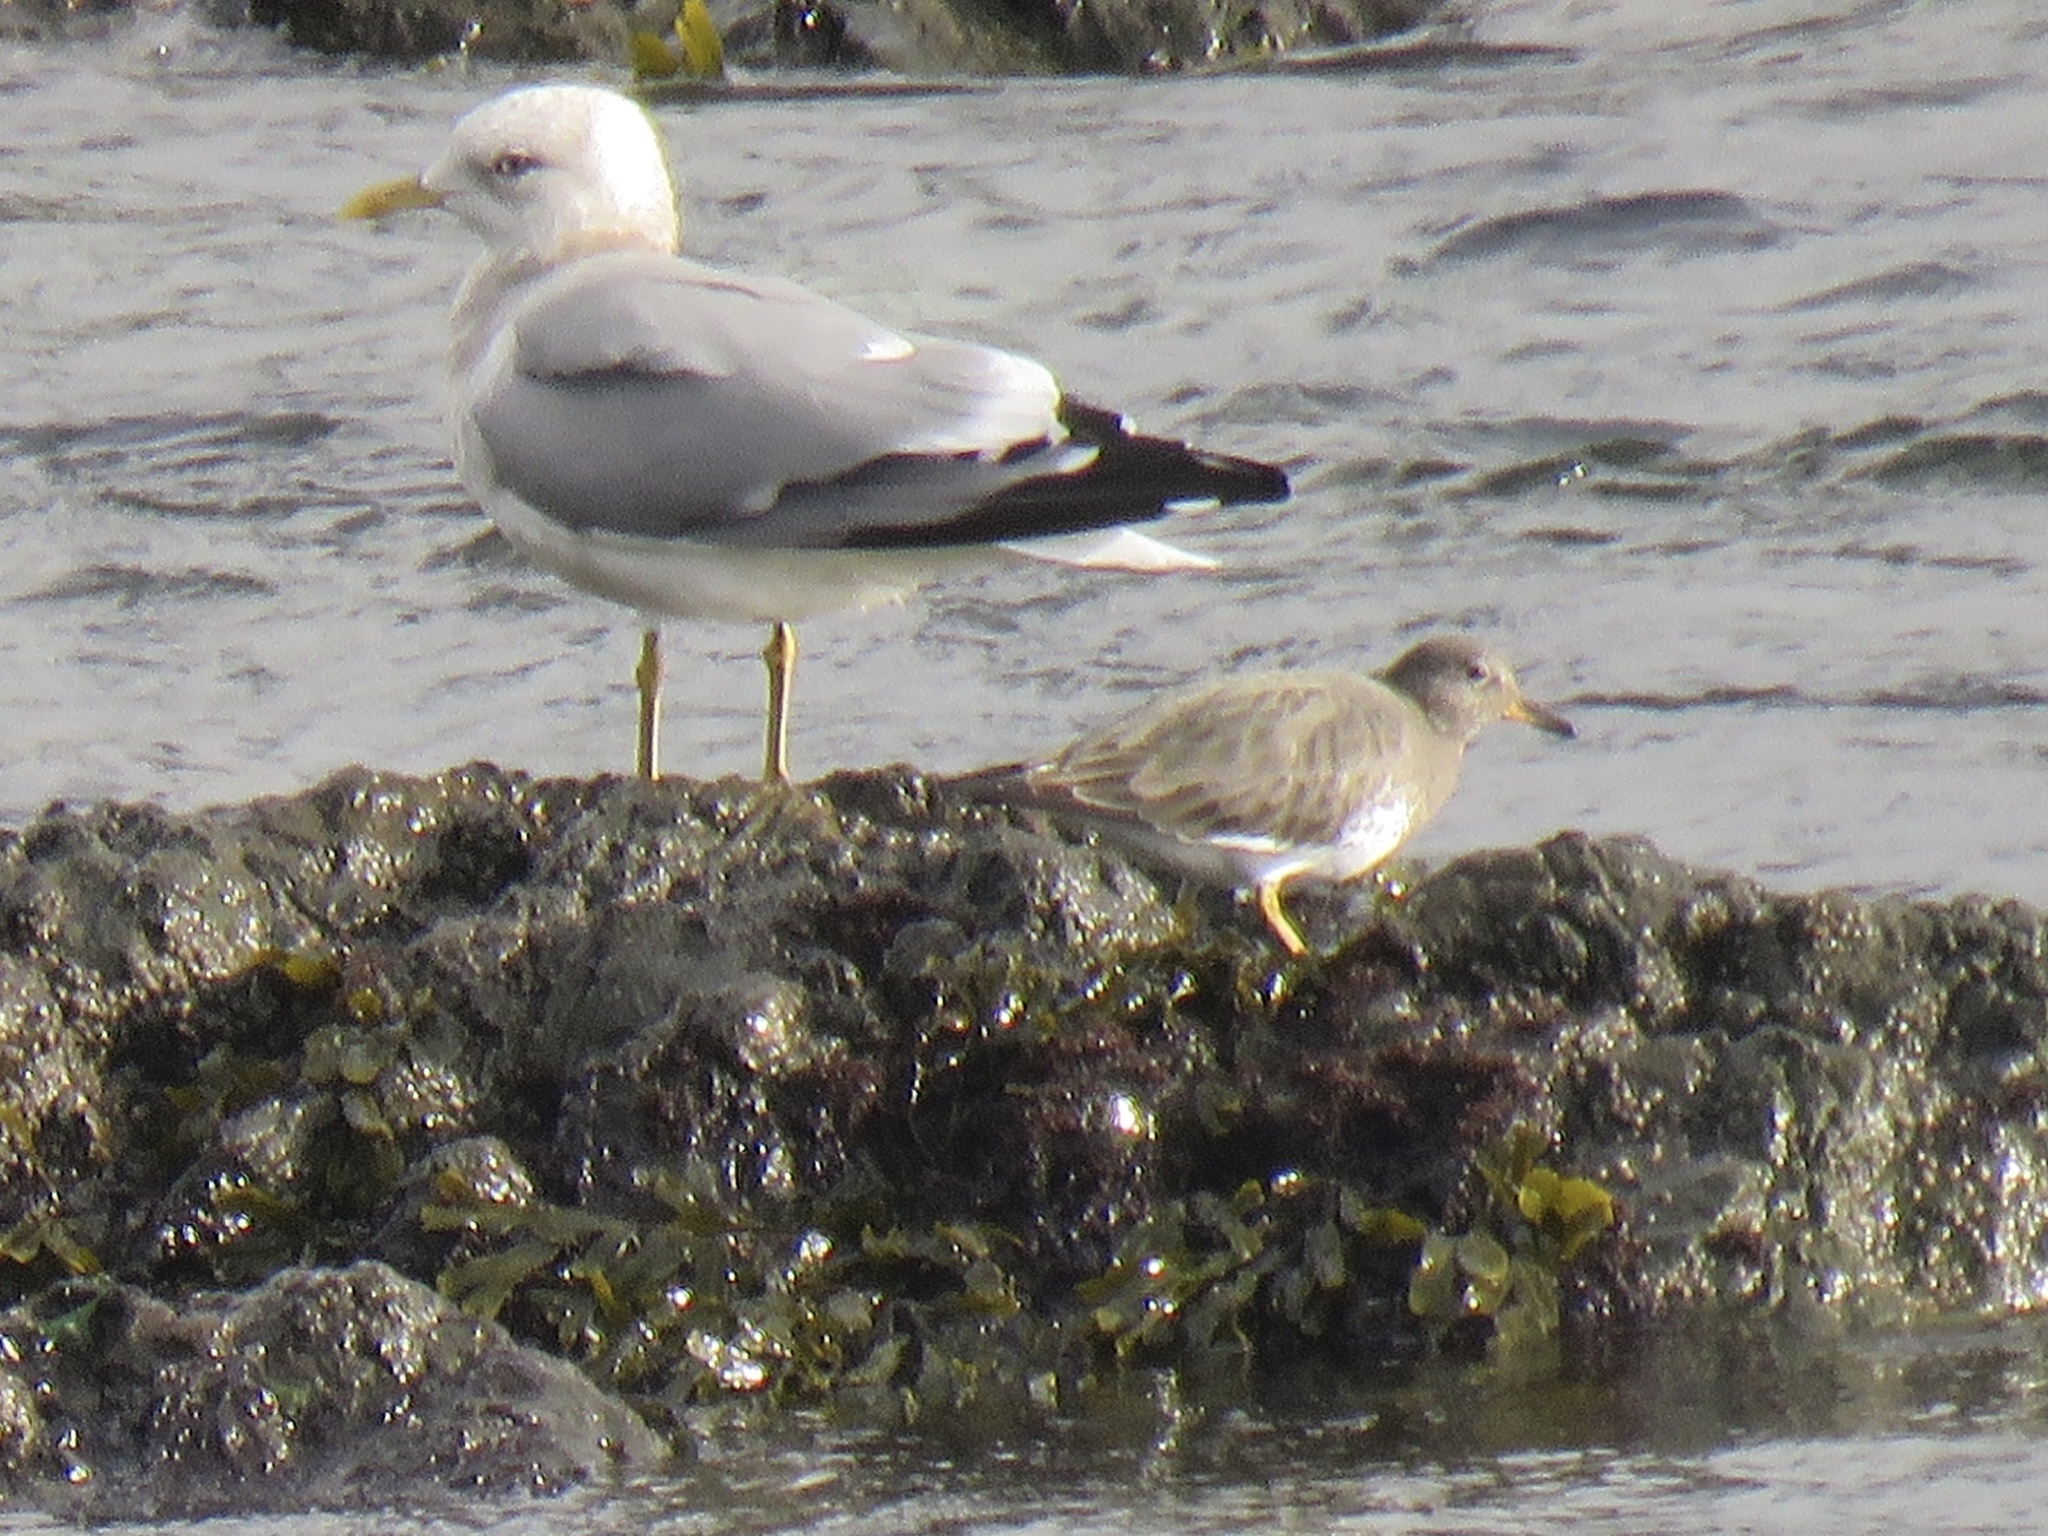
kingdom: Animalia
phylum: Chordata
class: Aves
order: Charadriiformes
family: Scolopacidae
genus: Calidris
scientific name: Calidris virgata
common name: Surfbird
